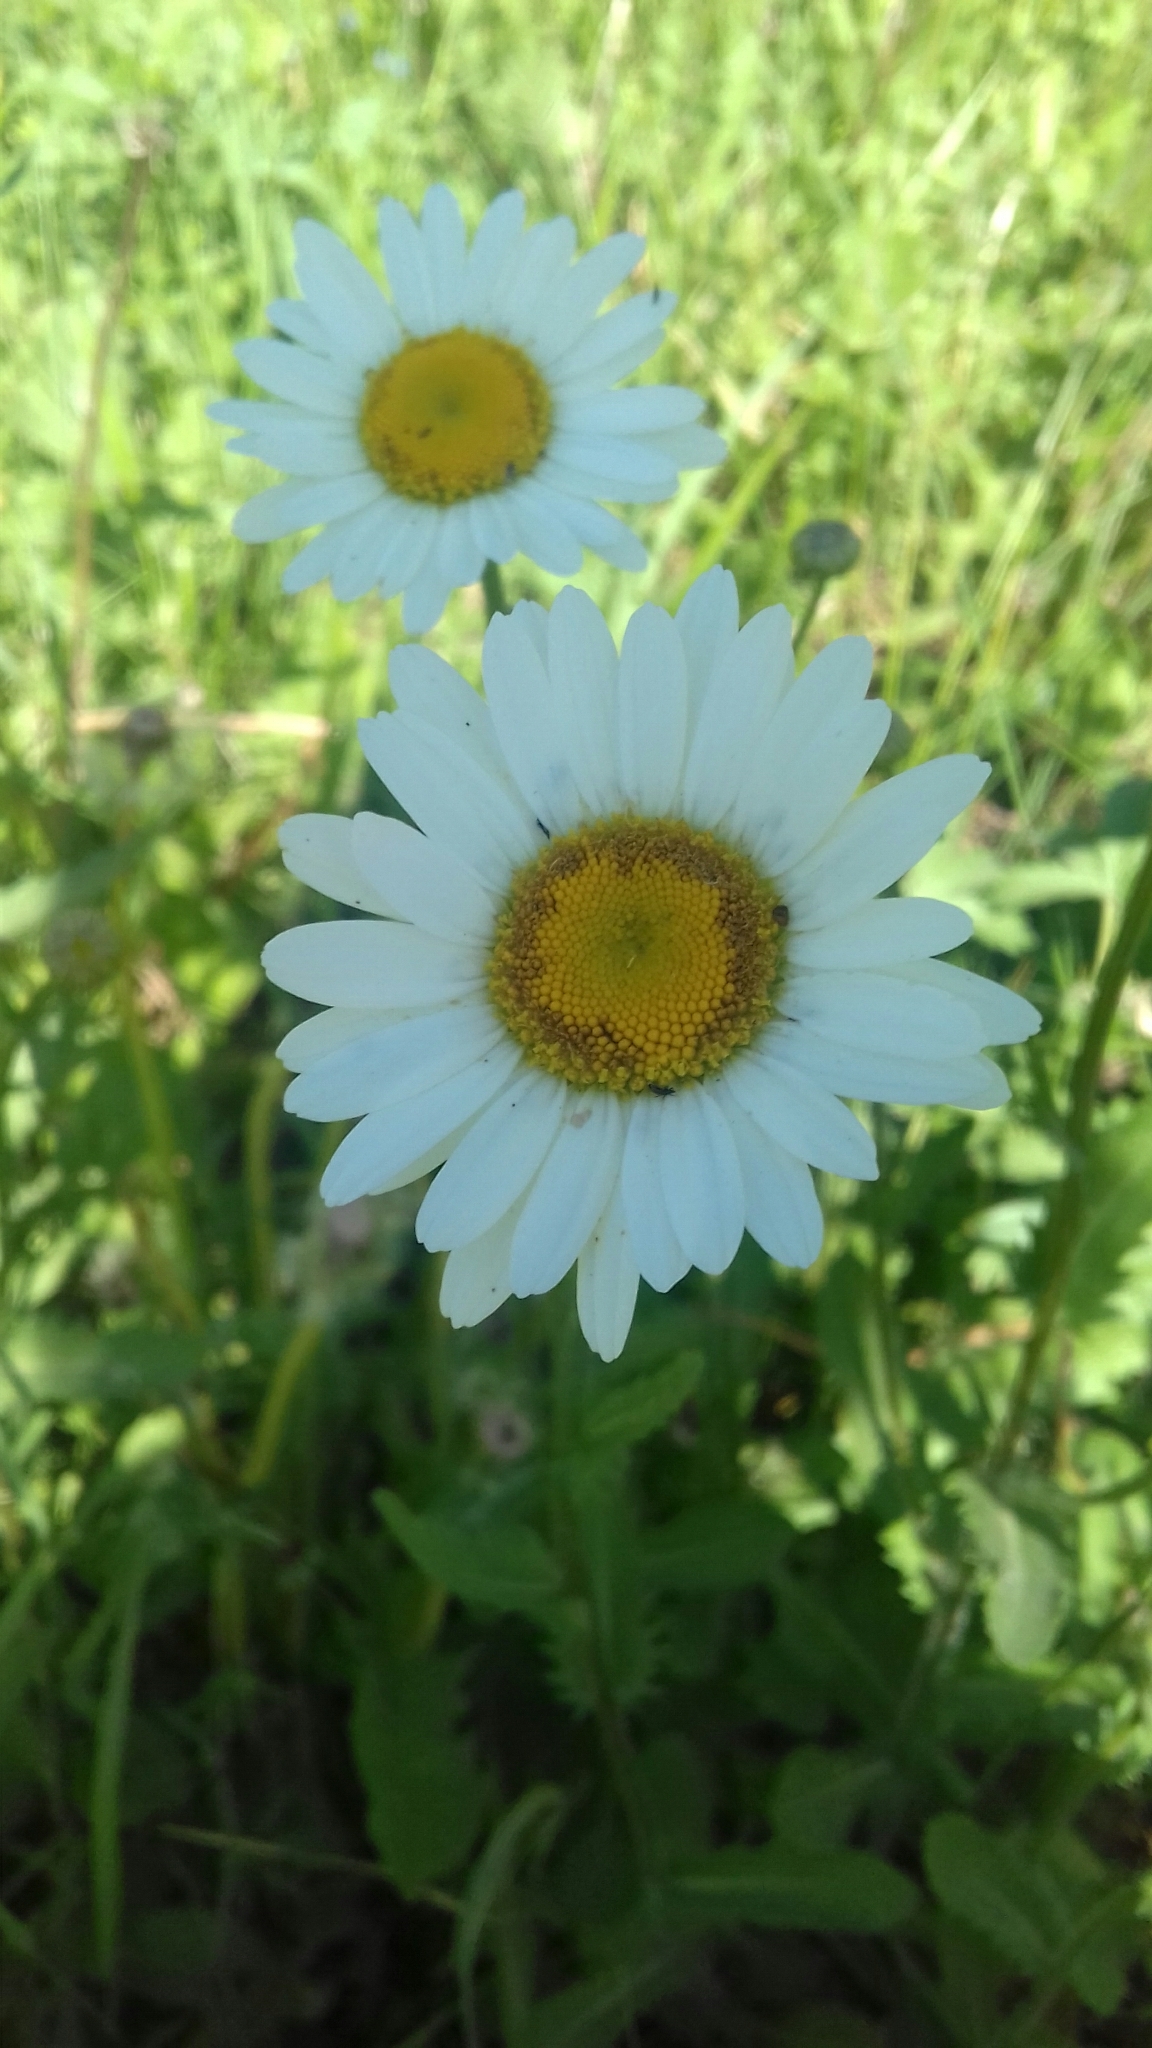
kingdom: Plantae
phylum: Tracheophyta
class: Magnoliopsida
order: Asterales
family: Asteraceae
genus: Leucanthemum
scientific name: Leucanthemum vulgare
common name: Oxeye daisy
